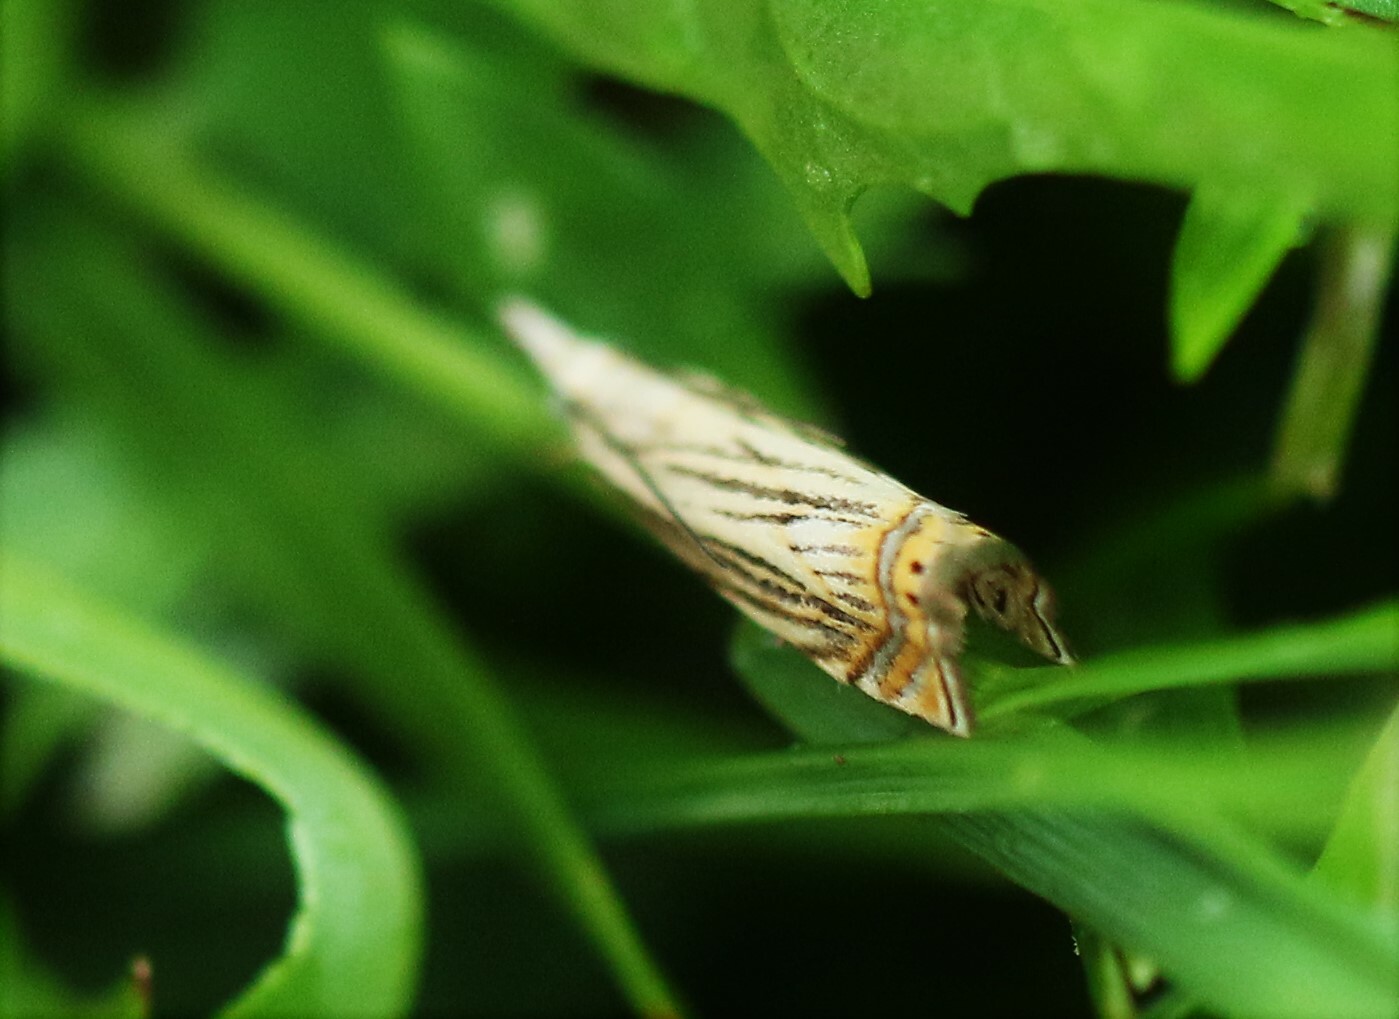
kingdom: Animalia
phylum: Arthropoda
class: Insecta
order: Lepidoptera
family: Crambidae
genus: Chrysoteuchia
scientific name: Chrysoteuchia topiarius
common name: Topiary grass-veneer
